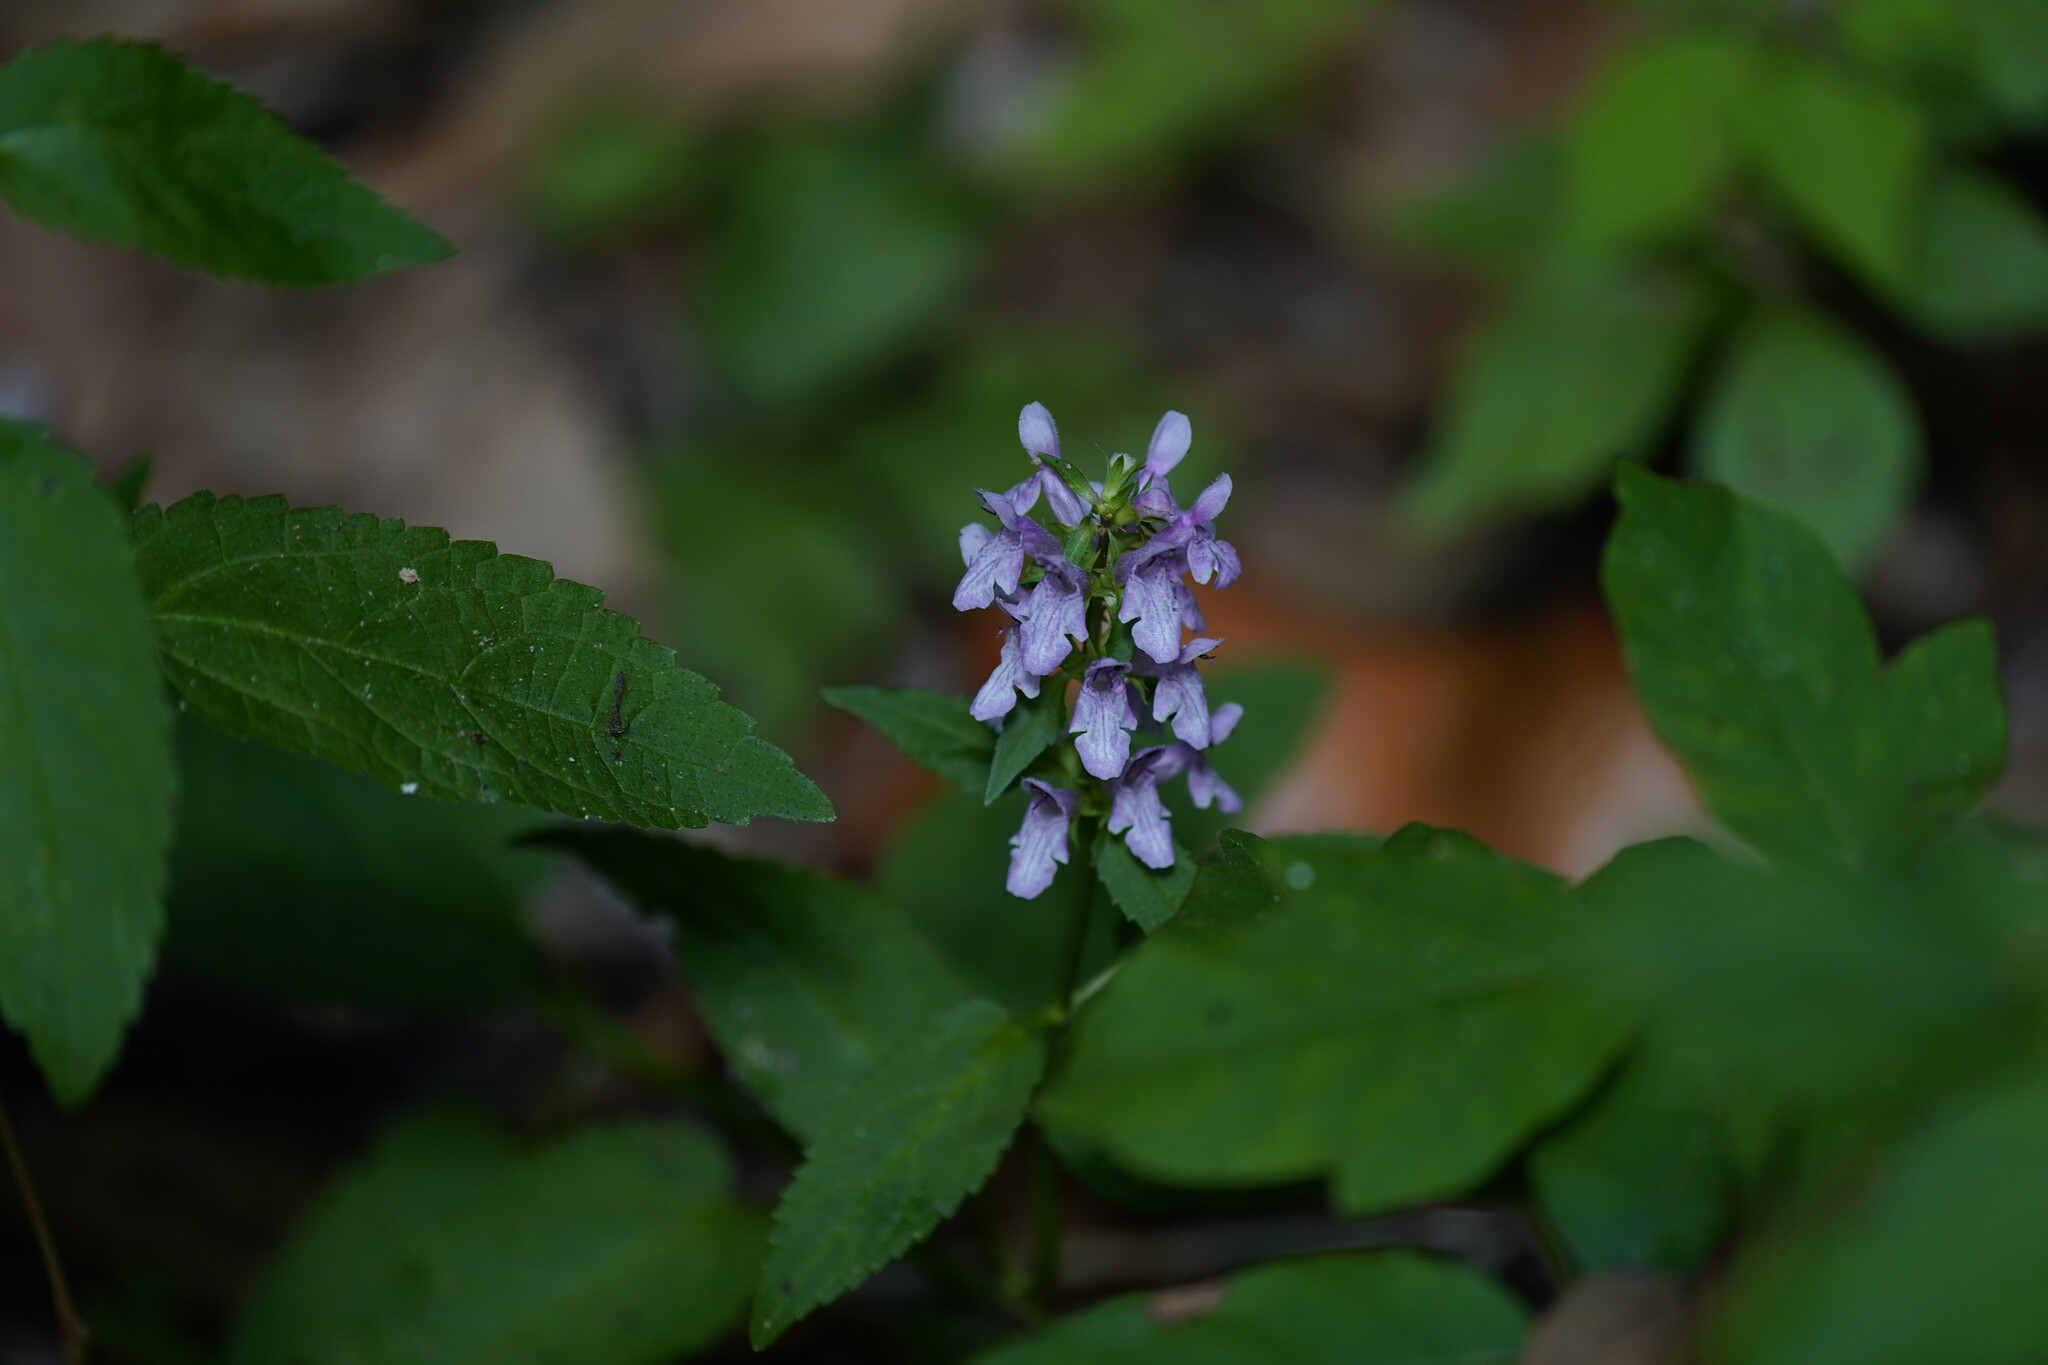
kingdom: Plantae
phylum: Tracheophyta
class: Magnoliopsida
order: Lamiales
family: Lamiaceae
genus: Stachys
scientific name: Stachys tenuifolia
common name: Smooth hedge-nettle
